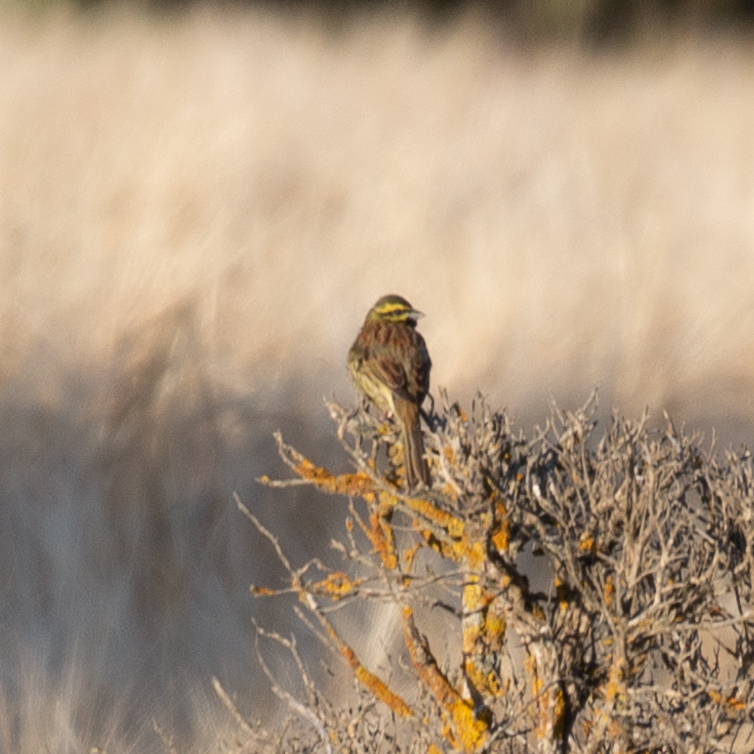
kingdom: Animalia
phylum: Chordata
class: Aves
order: Passeriformes
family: Emberizidae
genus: Emberiza
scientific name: Emberiza cirlus
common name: Cirl bunting
